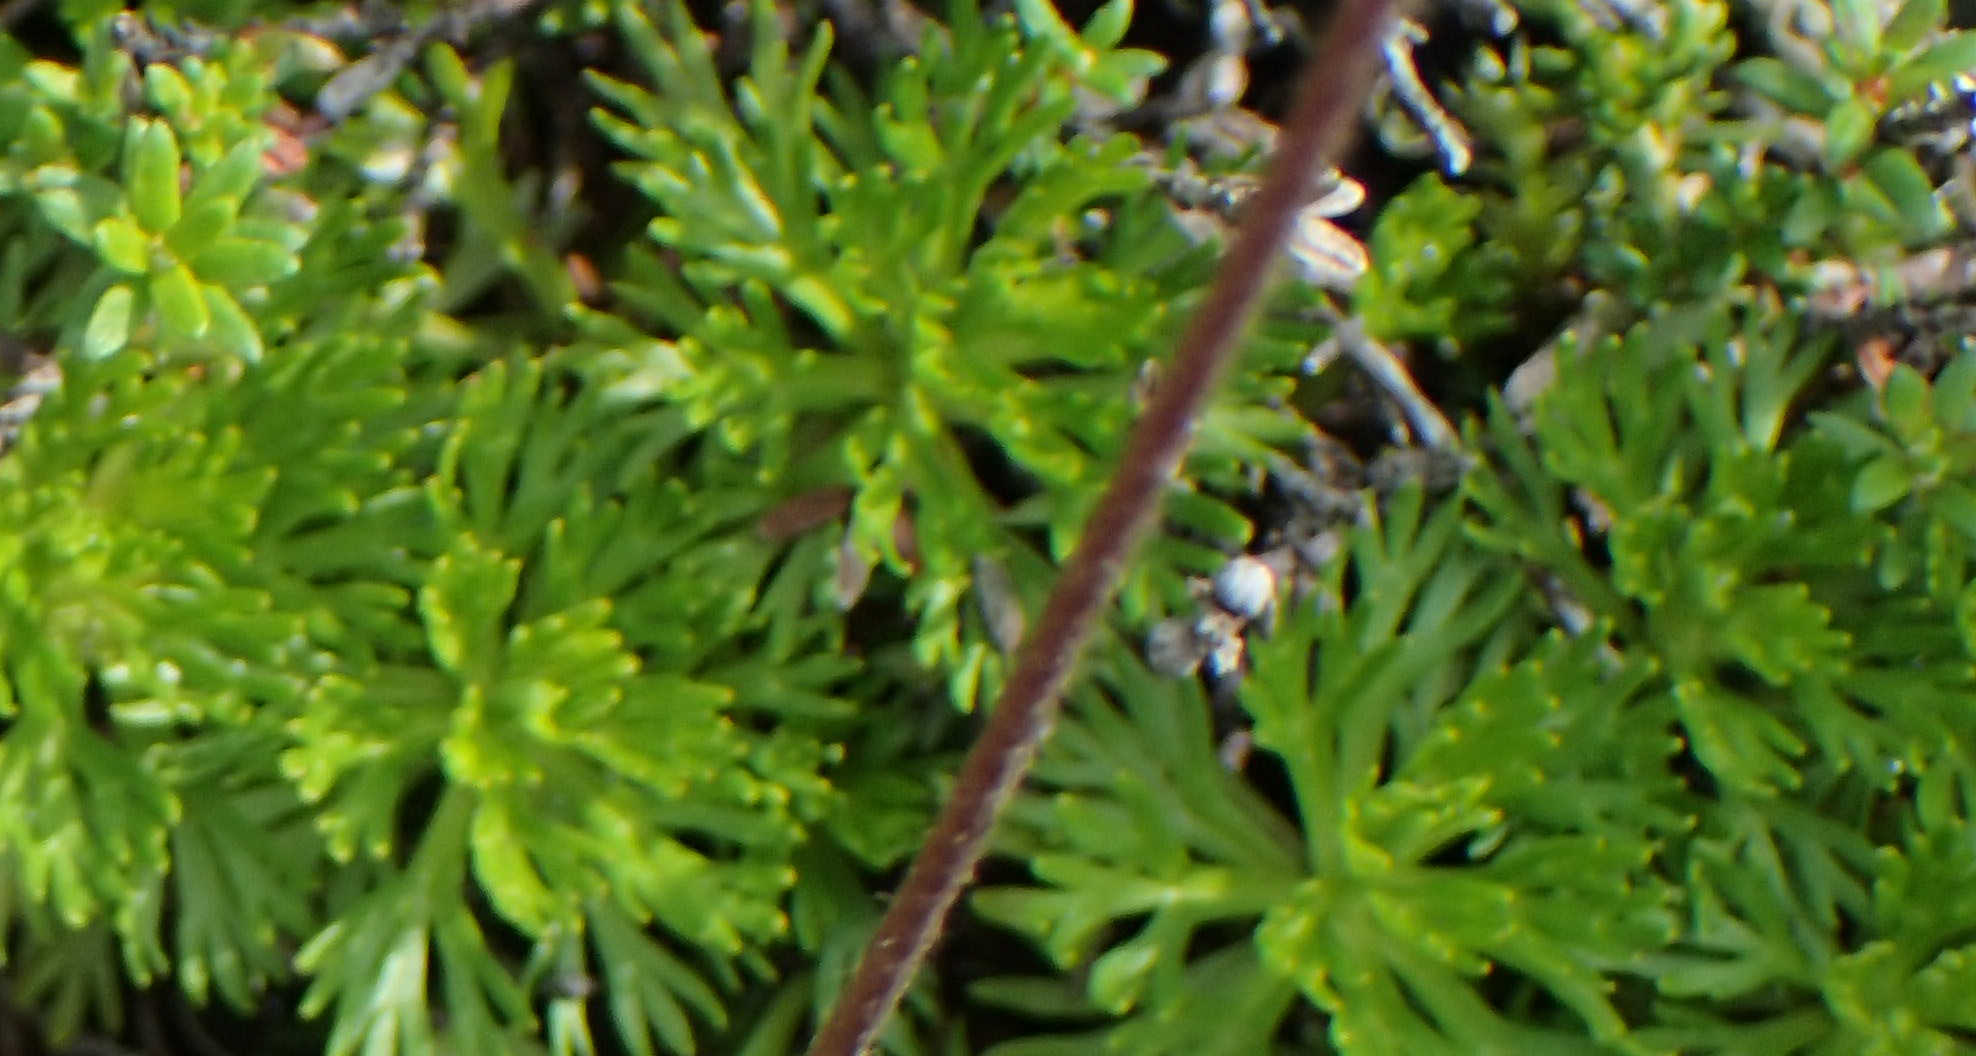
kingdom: Plantae
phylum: Tracheophyta
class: Magnoliopsida
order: Rosales
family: Rosaceae
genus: Luetkea
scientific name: Luetkea pectinata
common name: Partridgefoot
